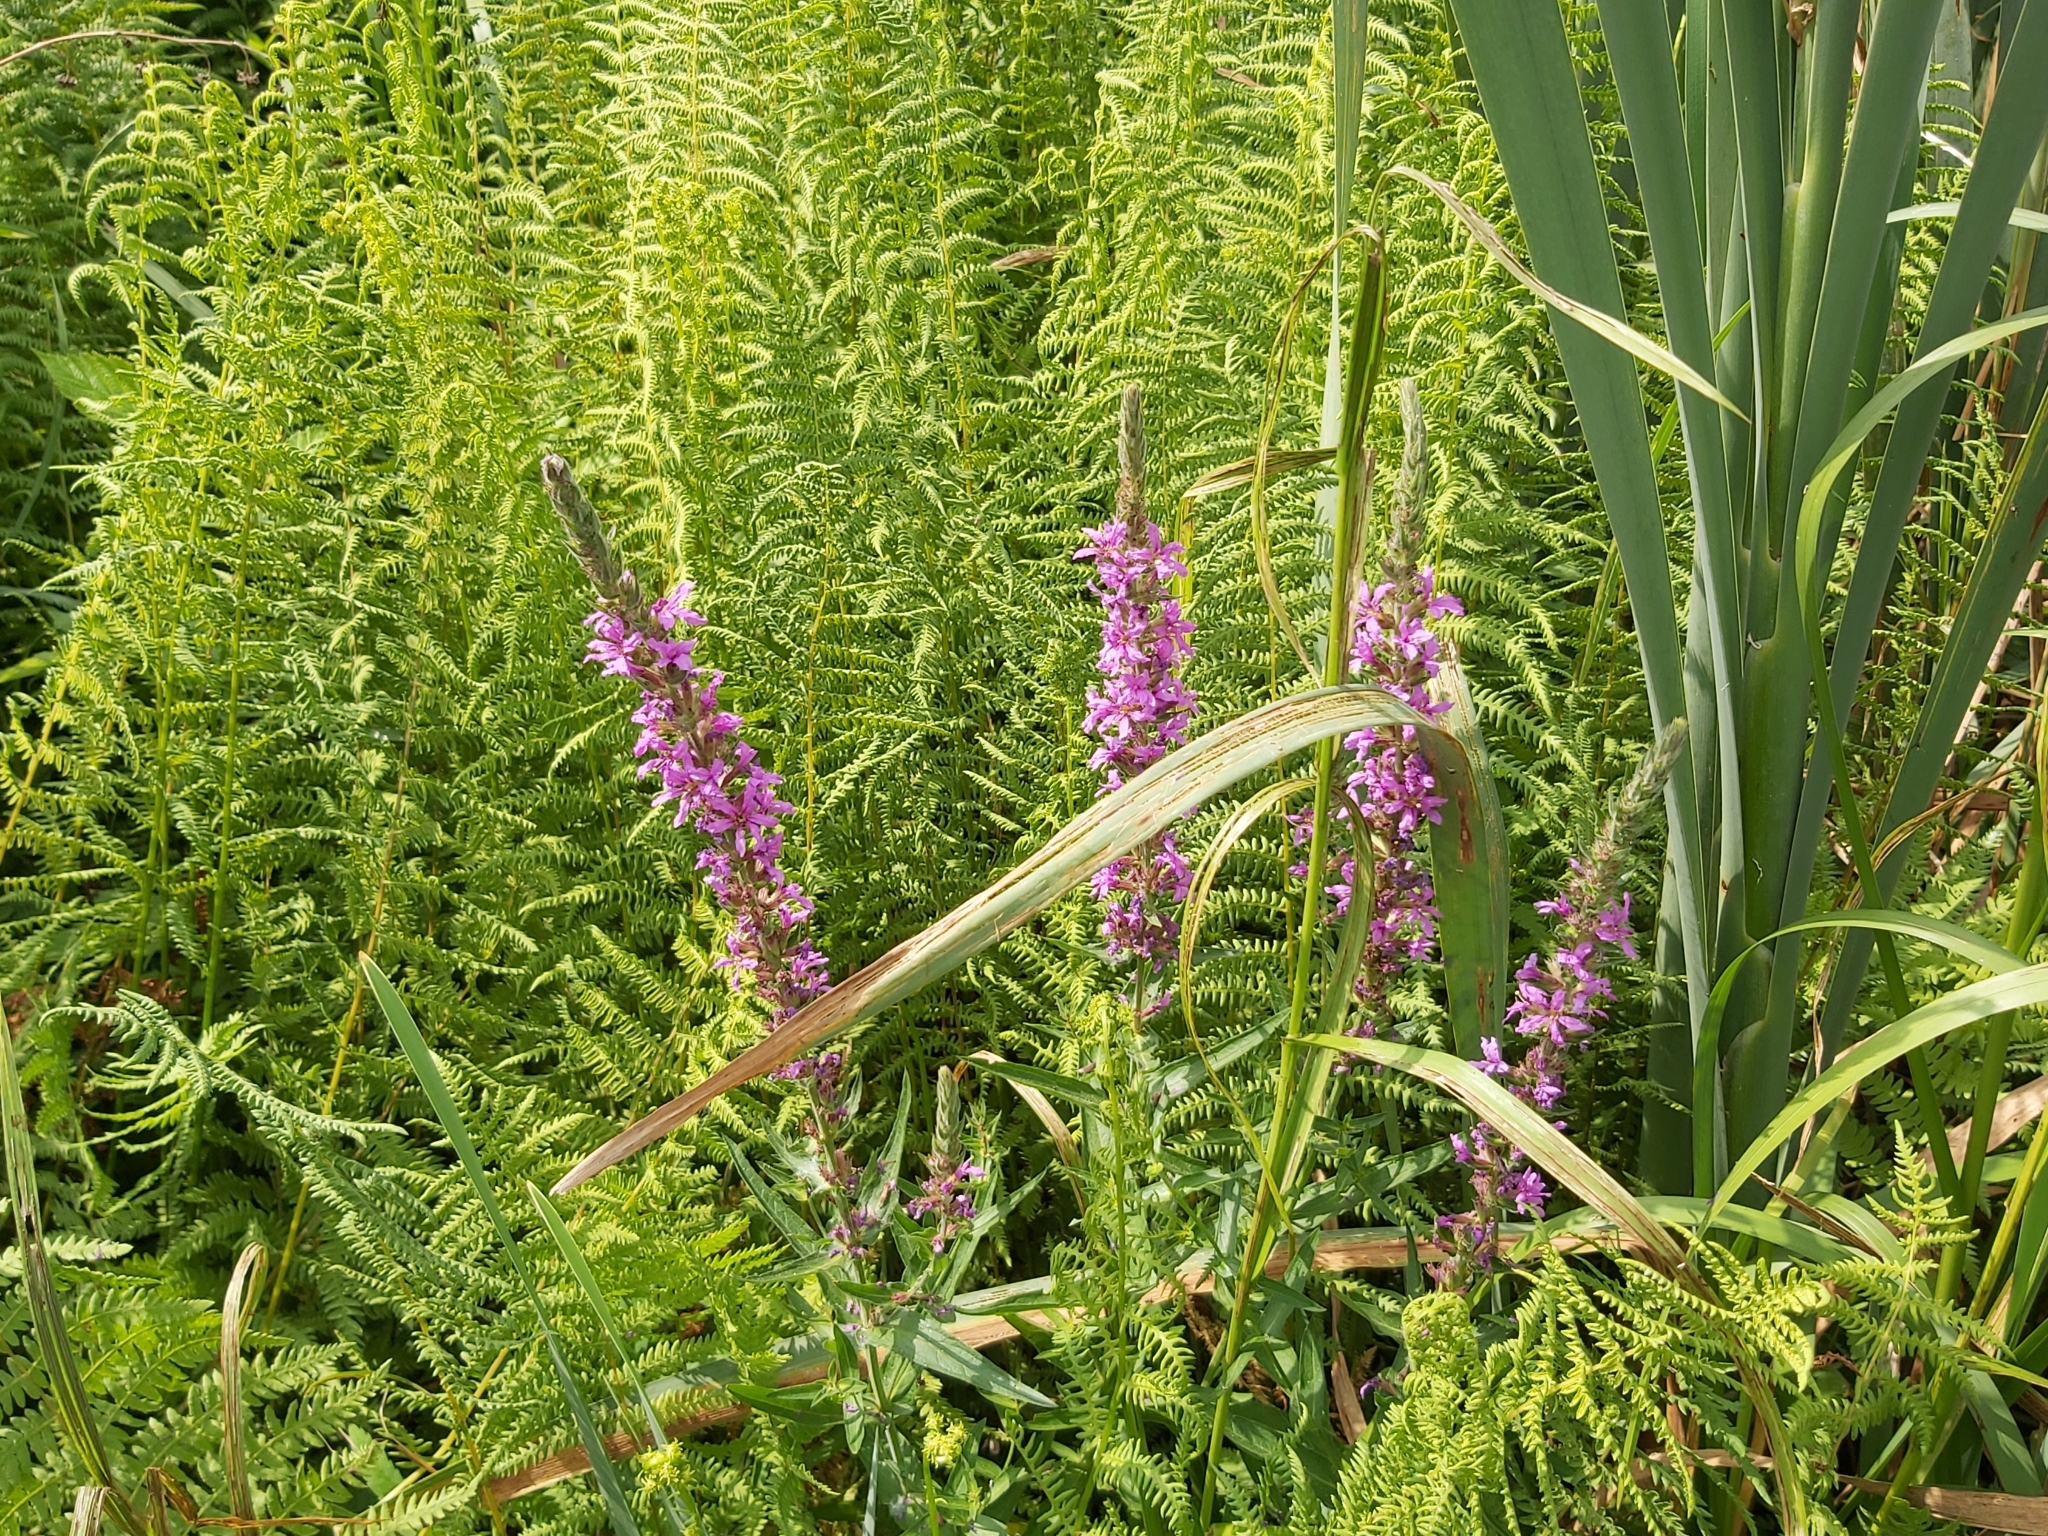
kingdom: Plantae
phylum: Tracheophyta
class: Magnoliopsida
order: Myrtales
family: Lythraceae
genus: Lythrum
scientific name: Lythrum salicaria
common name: Purple loosestrife
